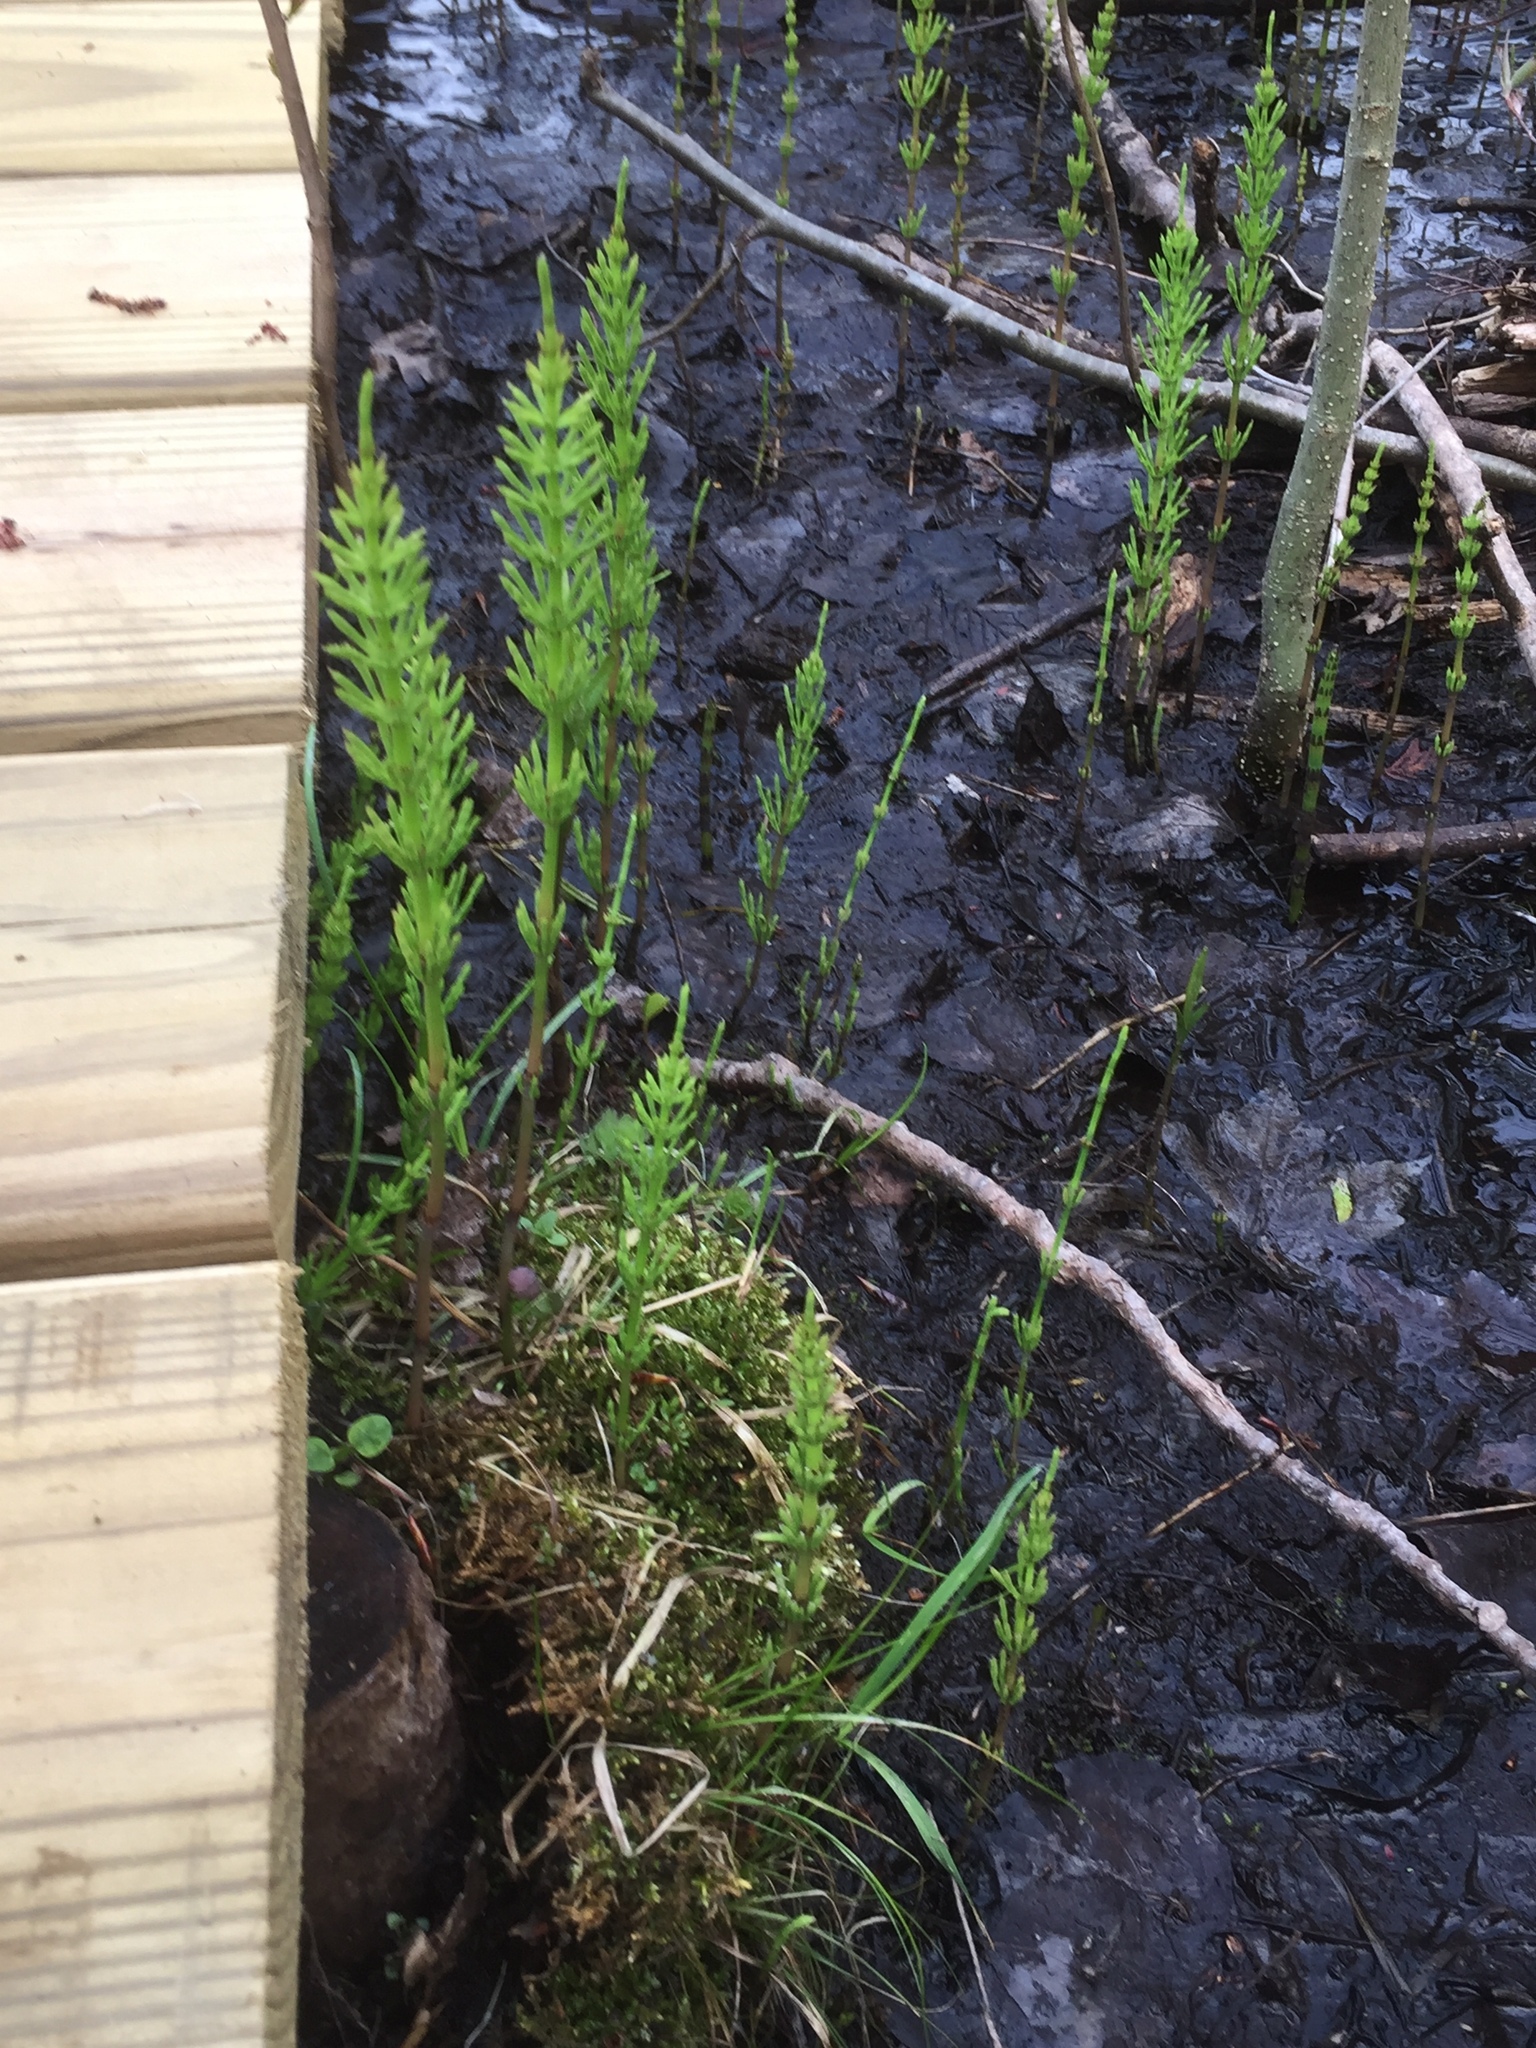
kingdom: Plantae
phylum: Tracheophyta
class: Polypodiopsida
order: Equisetales
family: Equisetaceae
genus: Equisetum
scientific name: Equisetum arvense
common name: Field horsetail
